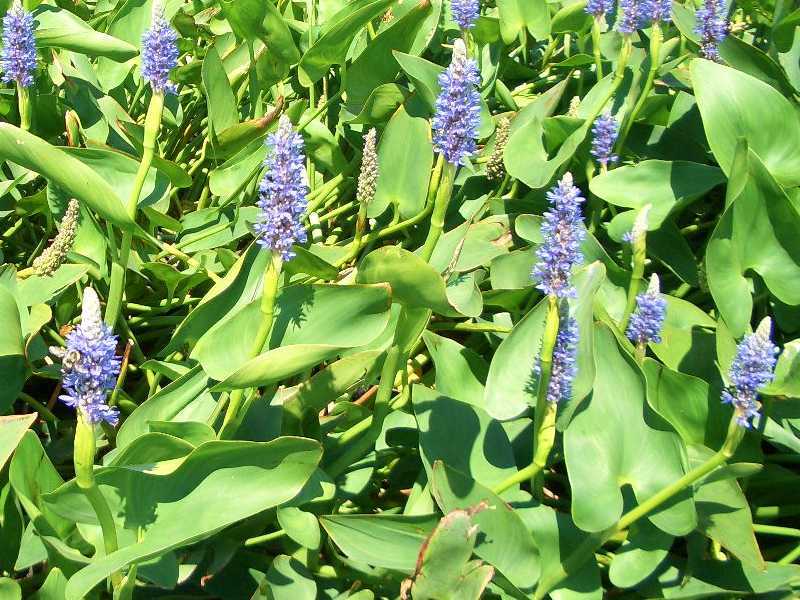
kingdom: Plantae
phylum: Tracheophyta
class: Liliopsida
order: Commelinales
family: Pontederiaceae
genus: Pontederia
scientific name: Pontederia cordata
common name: Pickerelweed
